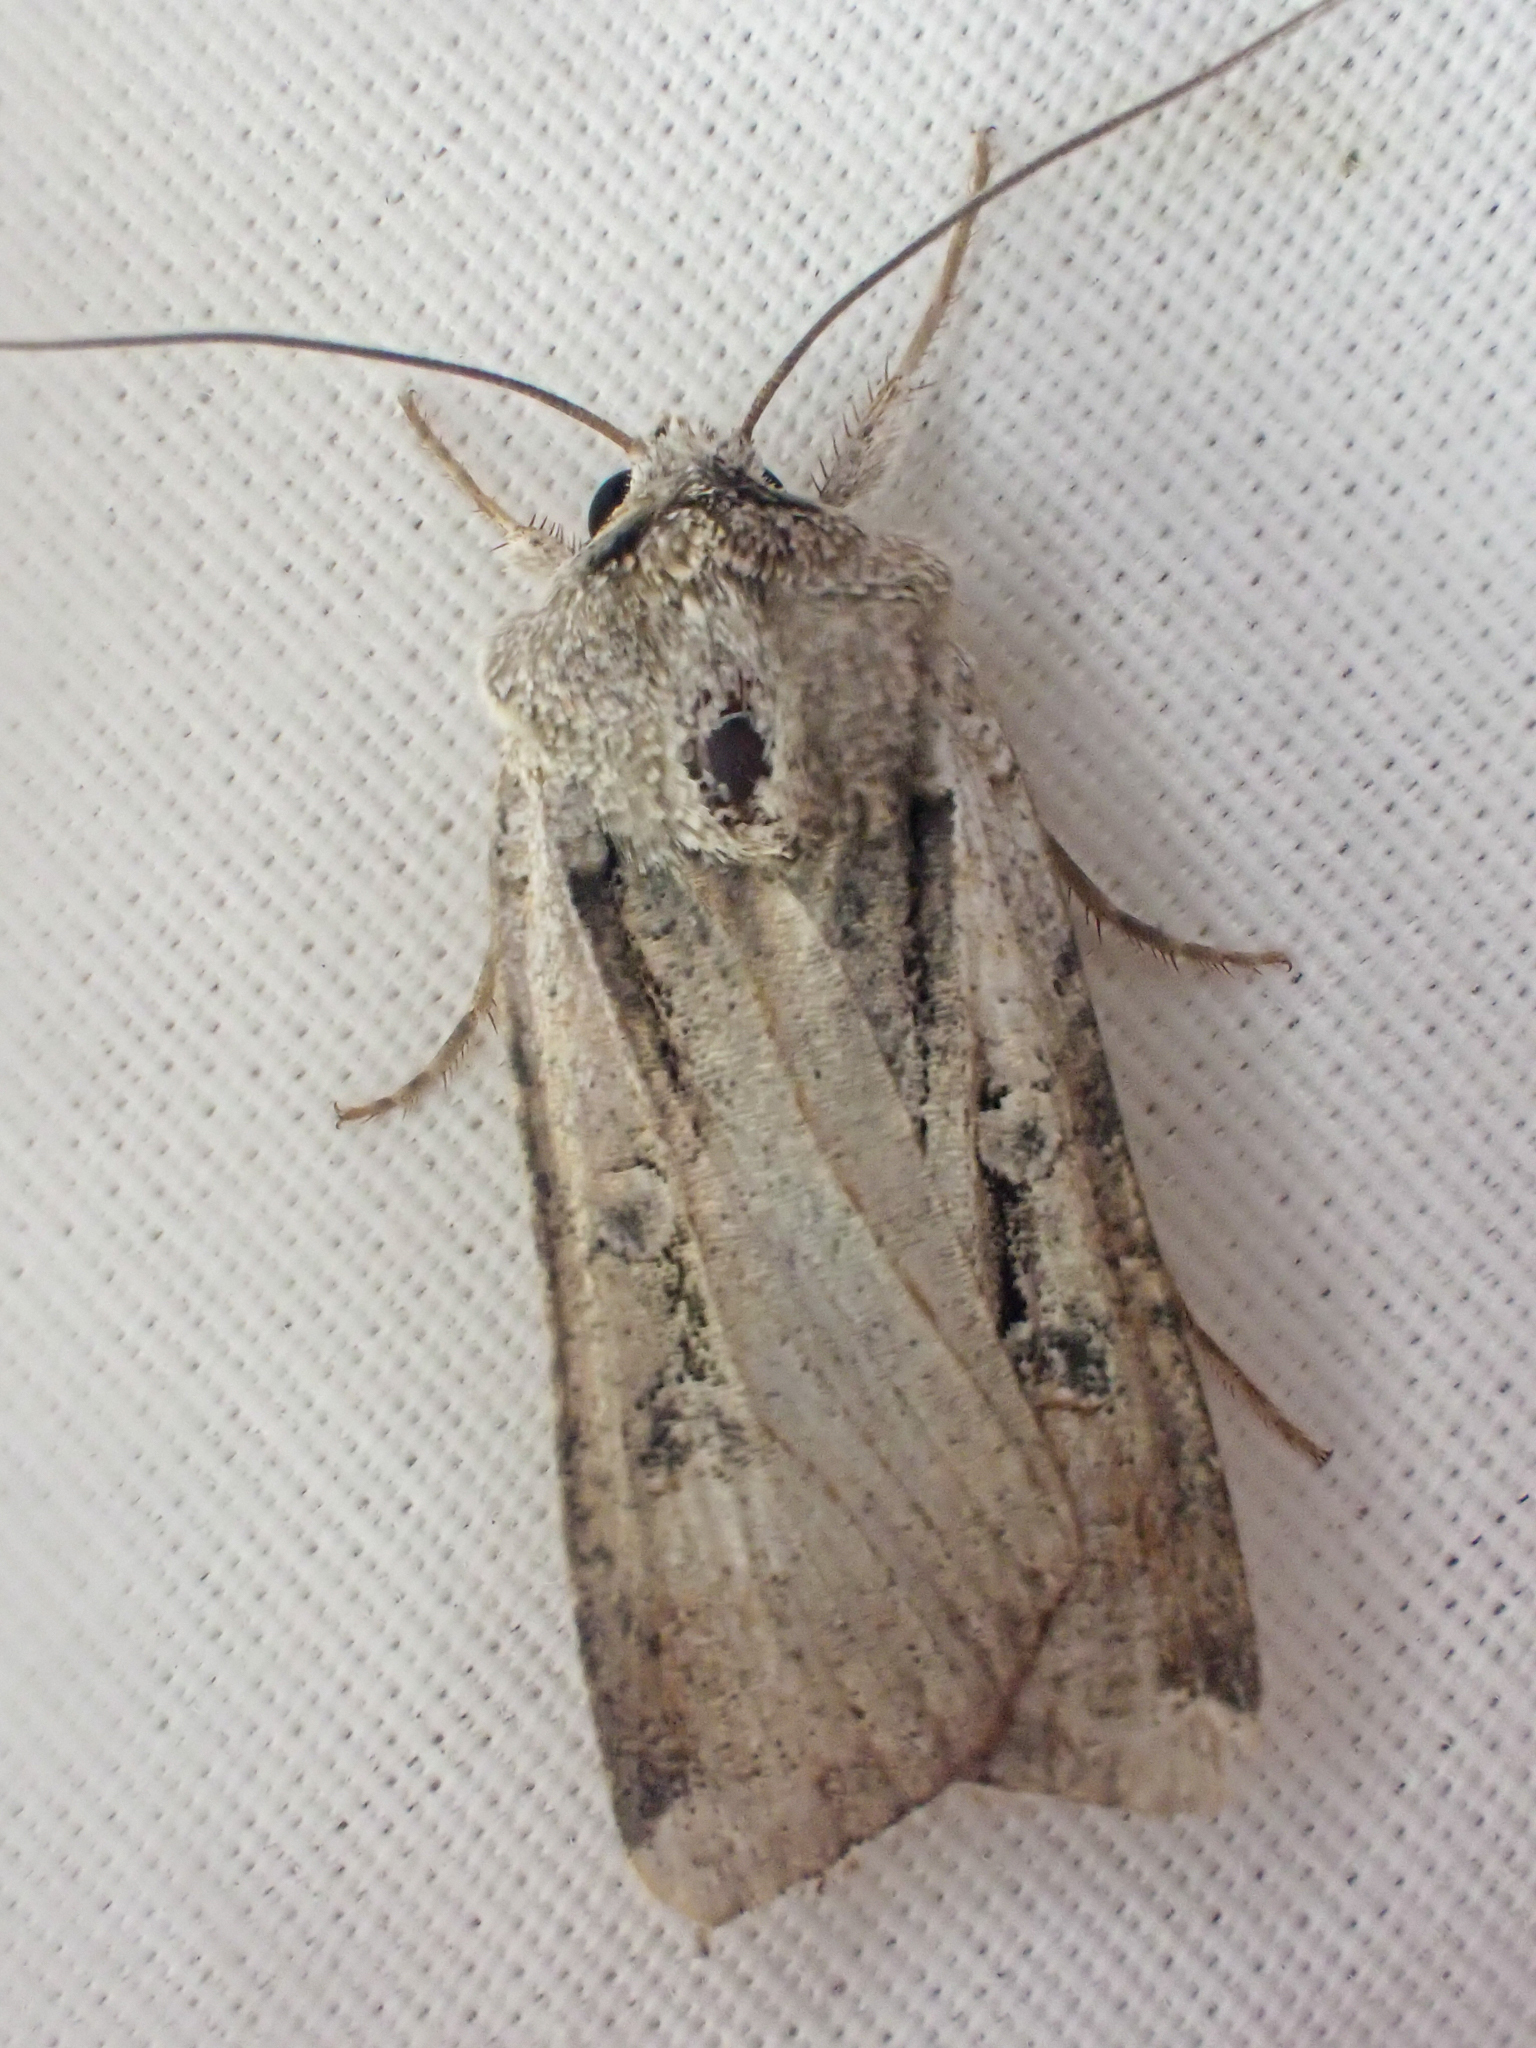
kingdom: Animalia
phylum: Arthropoda
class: Insecta
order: Lepidoptera
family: Noctuidae
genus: Hemieuxoa
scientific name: Hemieuxoa rudens
